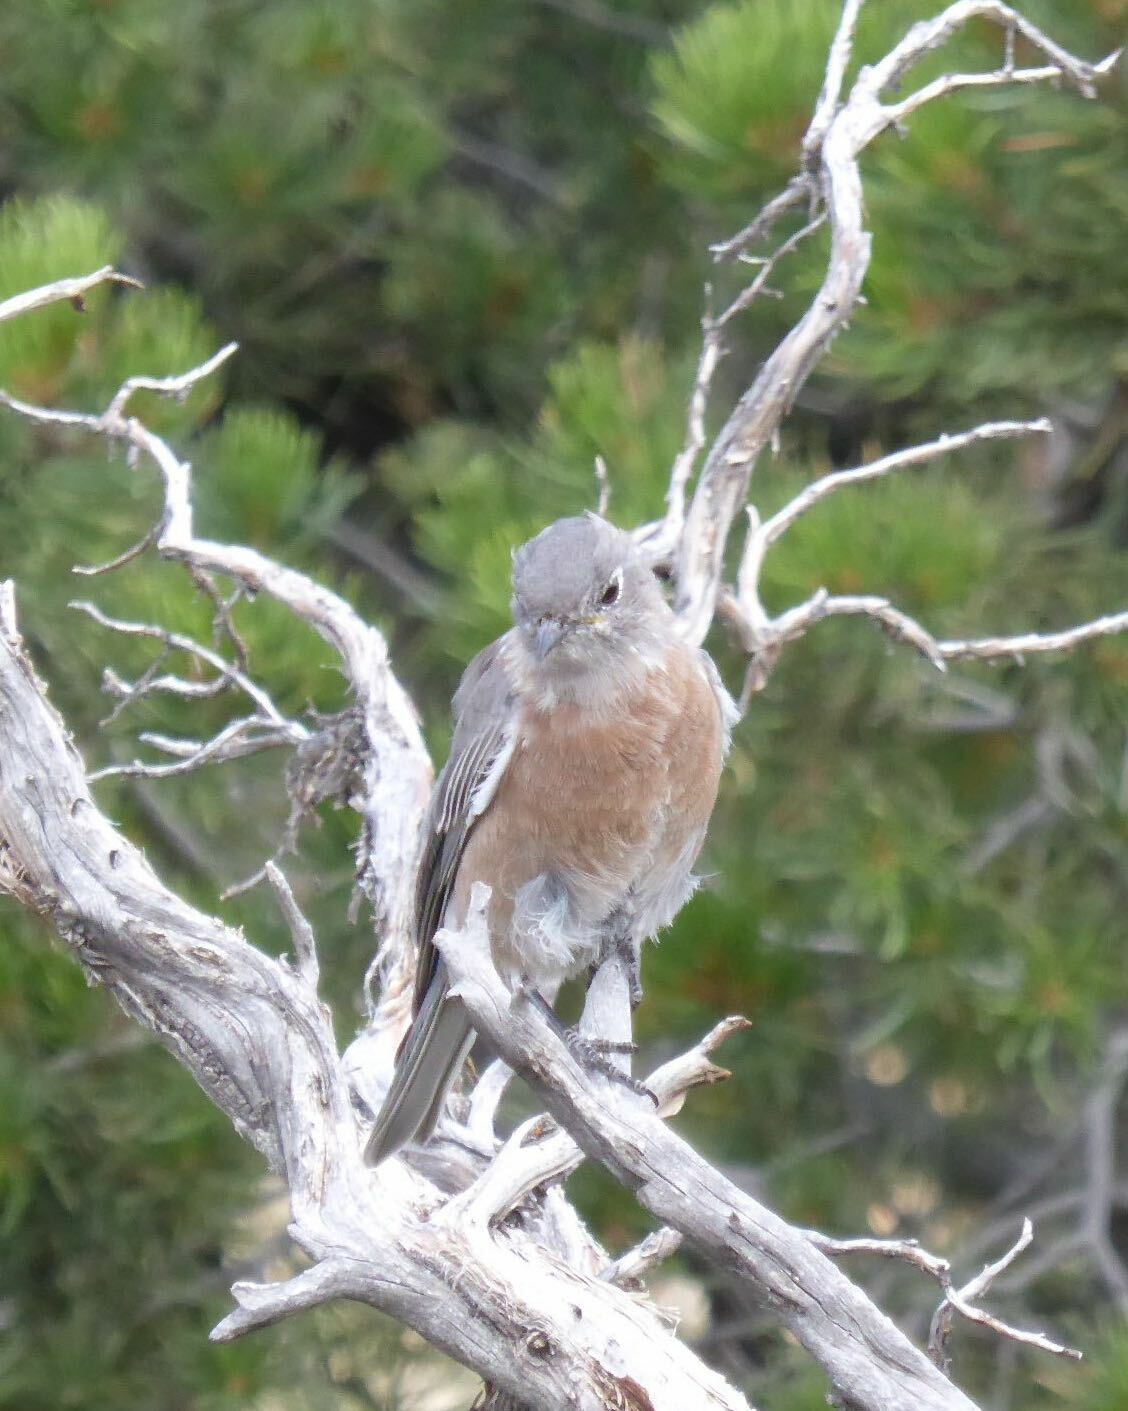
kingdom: Animalia
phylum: Chordata
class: Aves
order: Passeriformes
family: Turdidae
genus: Sialia
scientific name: Sialia mexicana
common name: Western bluebird
